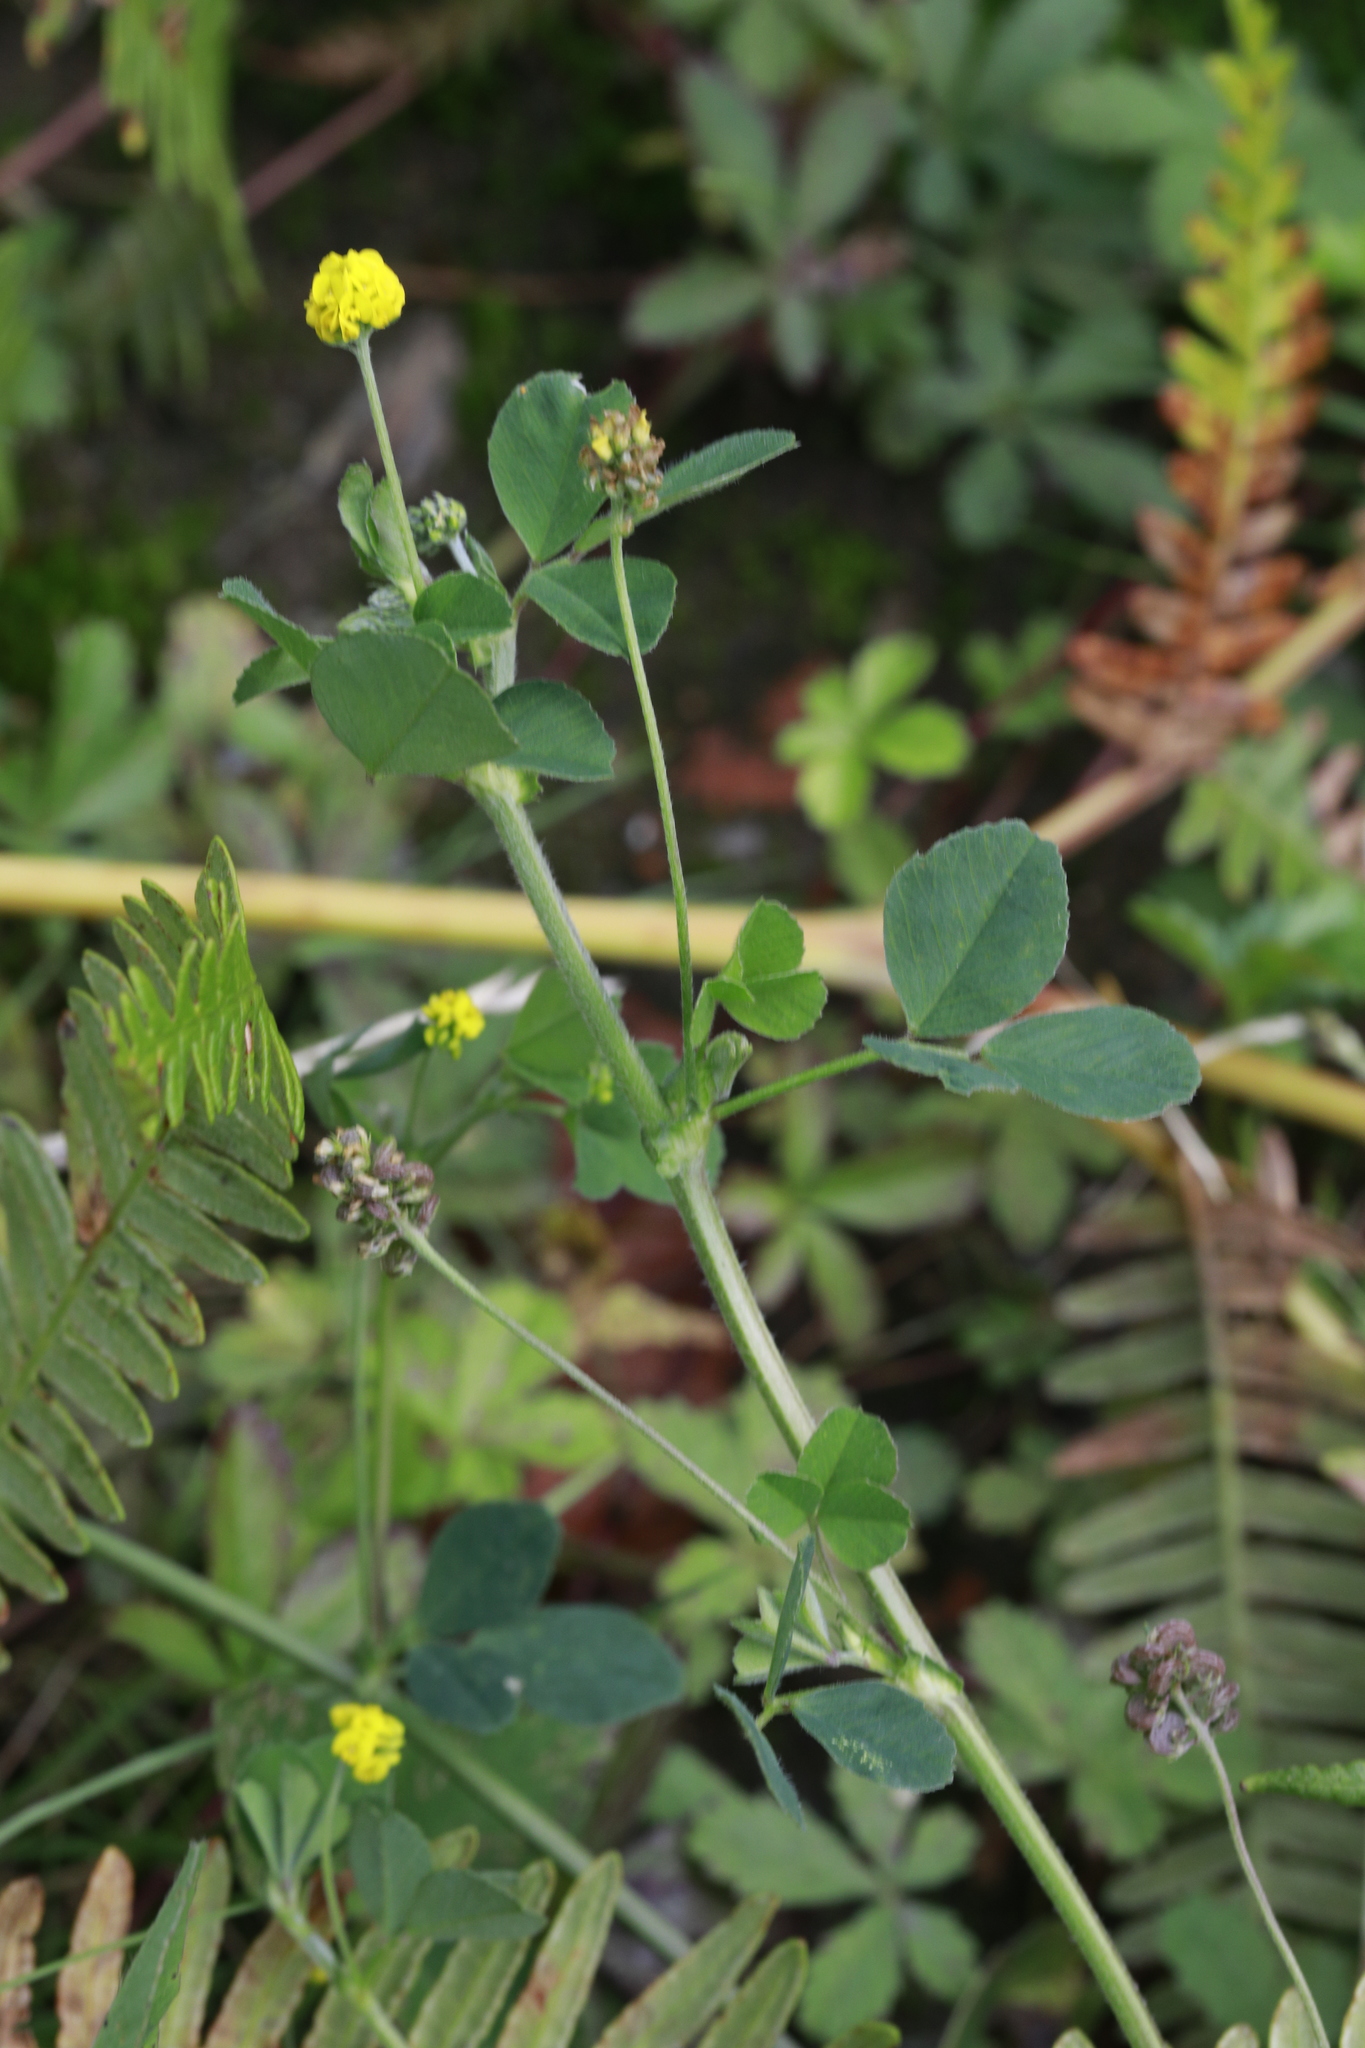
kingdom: Plantae
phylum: Tracheophyta
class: Magnoliopsida
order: Fabales
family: Fabaceae
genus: Medicago
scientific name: Medicago lupulina
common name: Black medick
